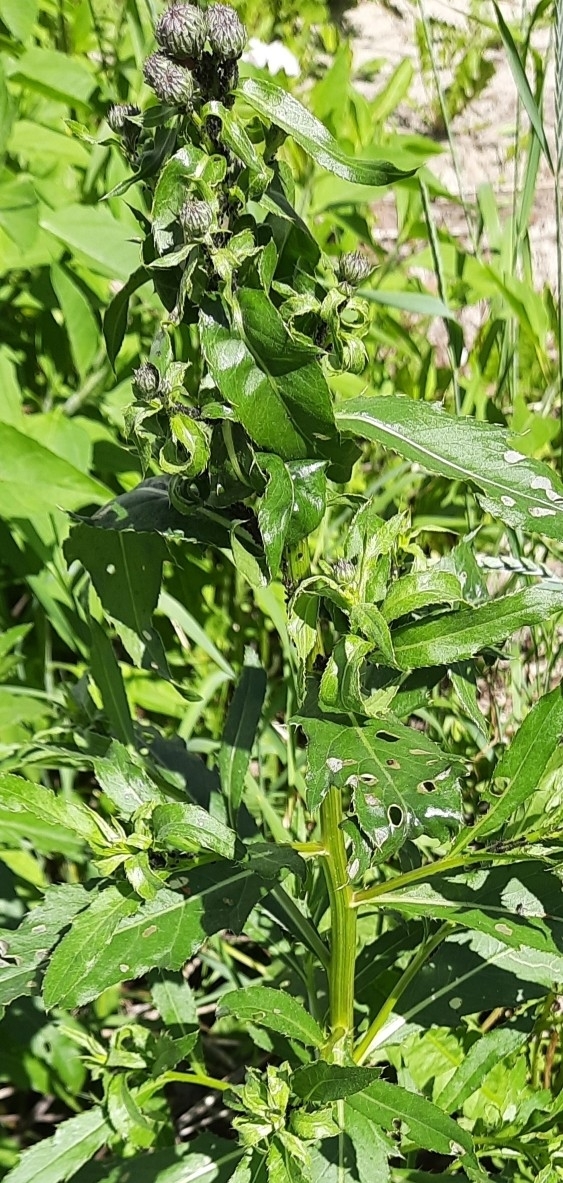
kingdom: Plantae
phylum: Tracheophyta
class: Magnoliopsida
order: Asterales
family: Asteraceae
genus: Cirsium
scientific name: Cirsium arvense
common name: Creeping thistle
